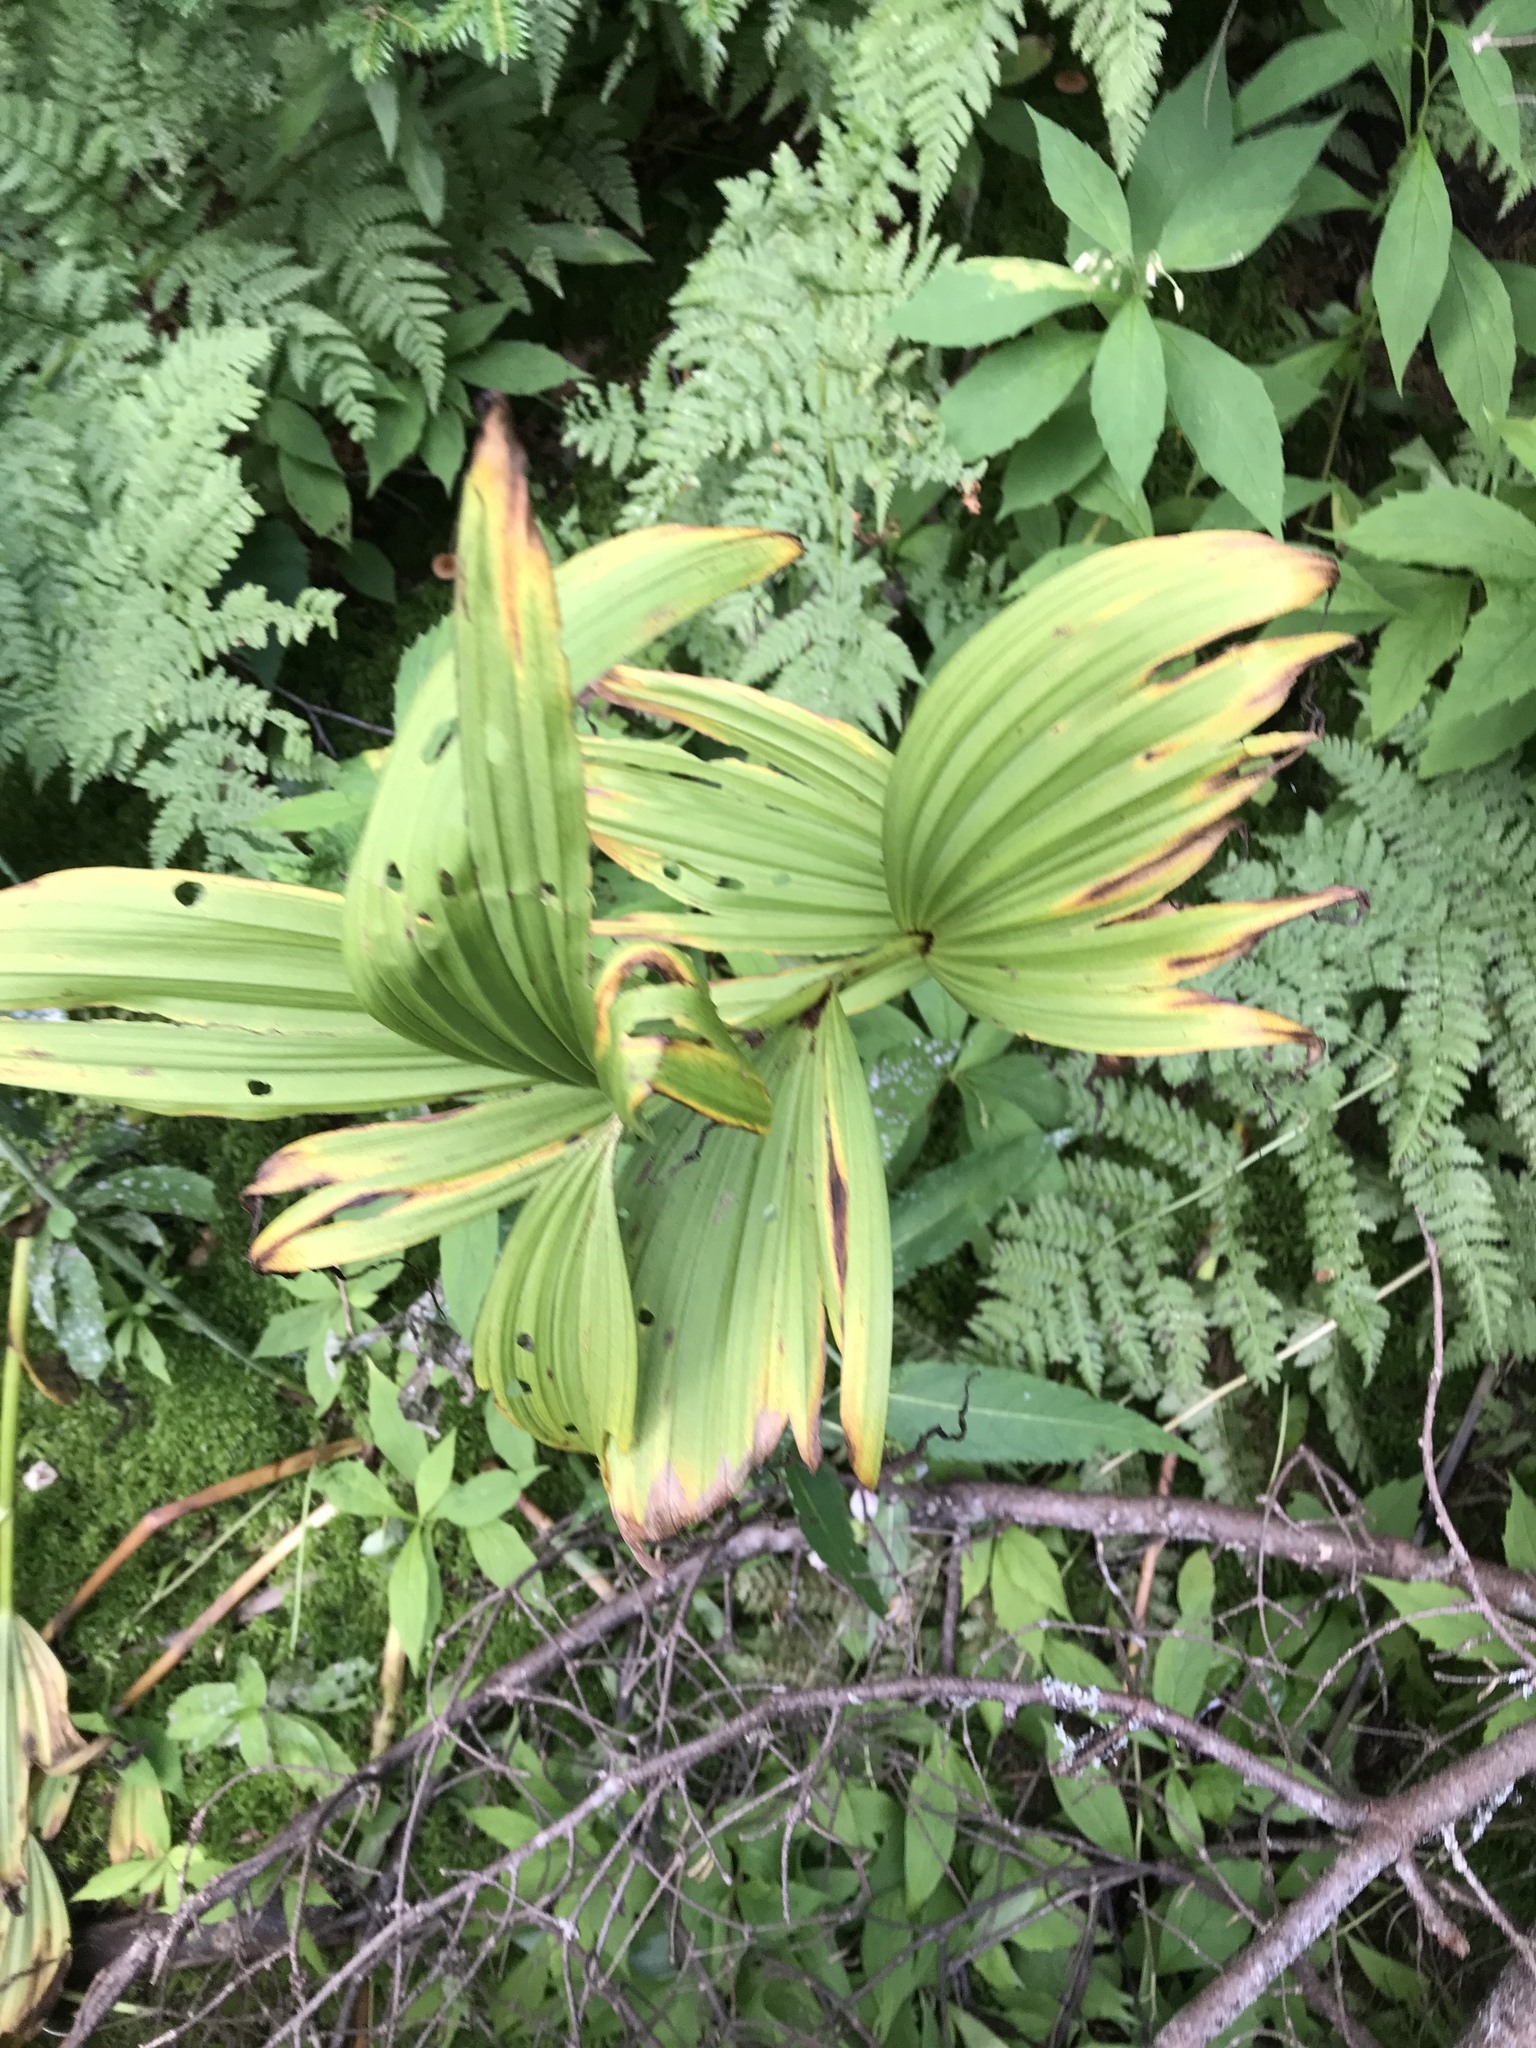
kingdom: Plantae
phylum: Tracheophyta
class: Liliopsida
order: Liliales
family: Melanthiaceae
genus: Veratrum
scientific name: Veratrum viride
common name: American false hellebore
